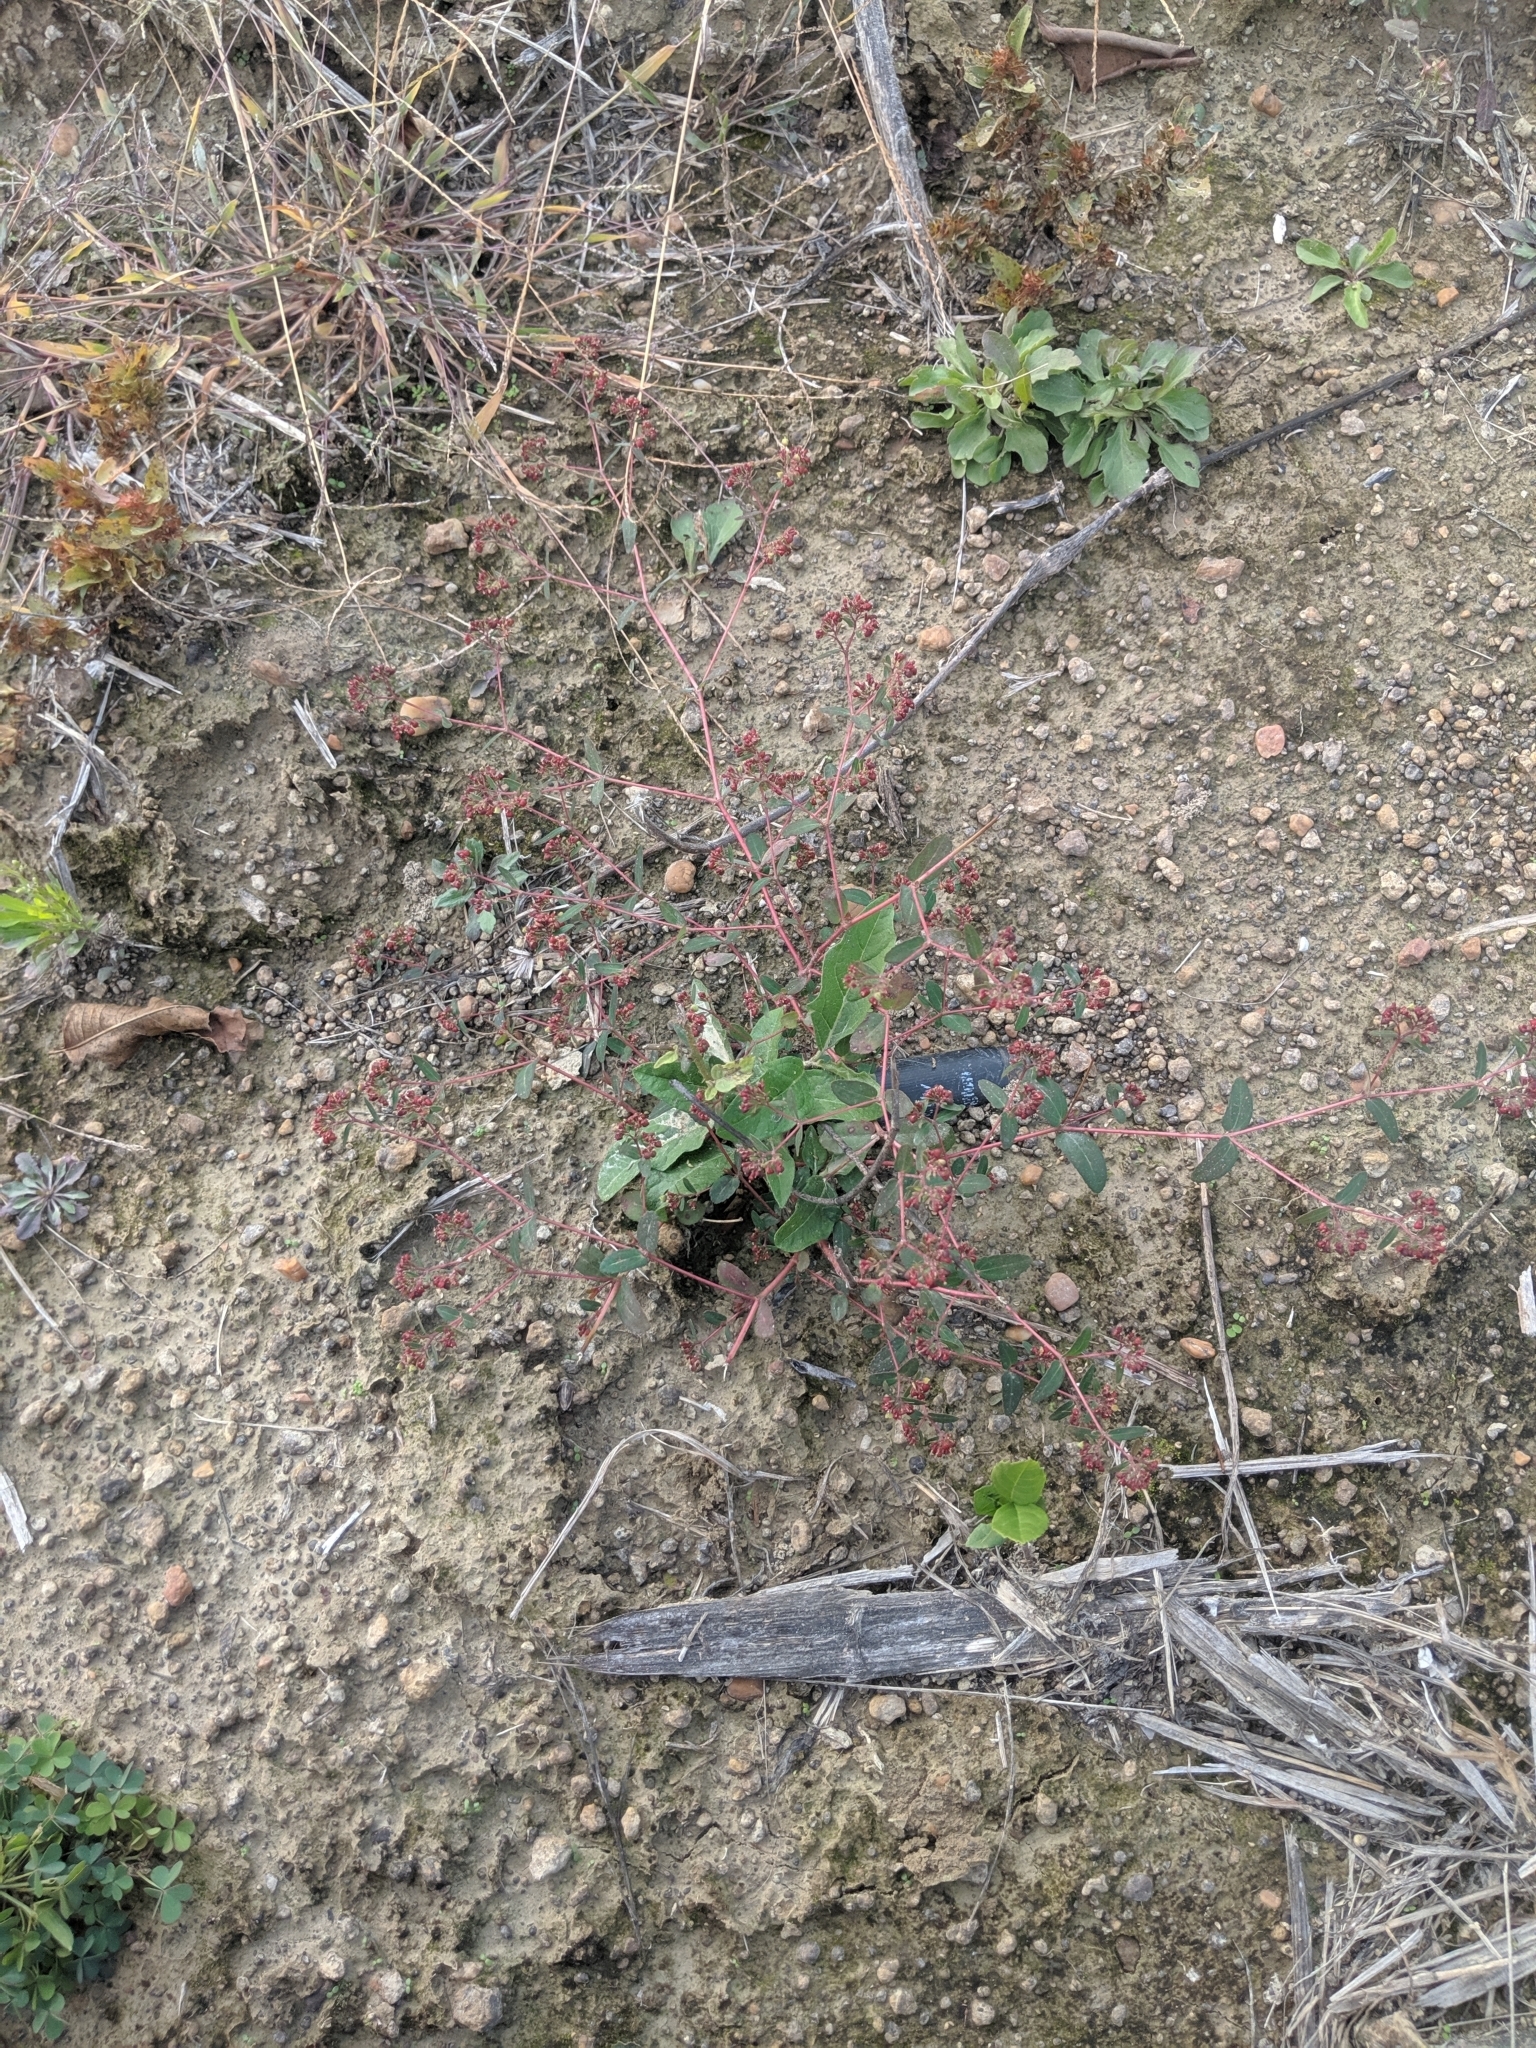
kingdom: Plantae
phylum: Tracheophyta
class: Magnoliopsida
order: Malpighiales
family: Euphorbiaceae
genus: Euphorbia
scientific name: Euphorbia nutans
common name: Eyebane
